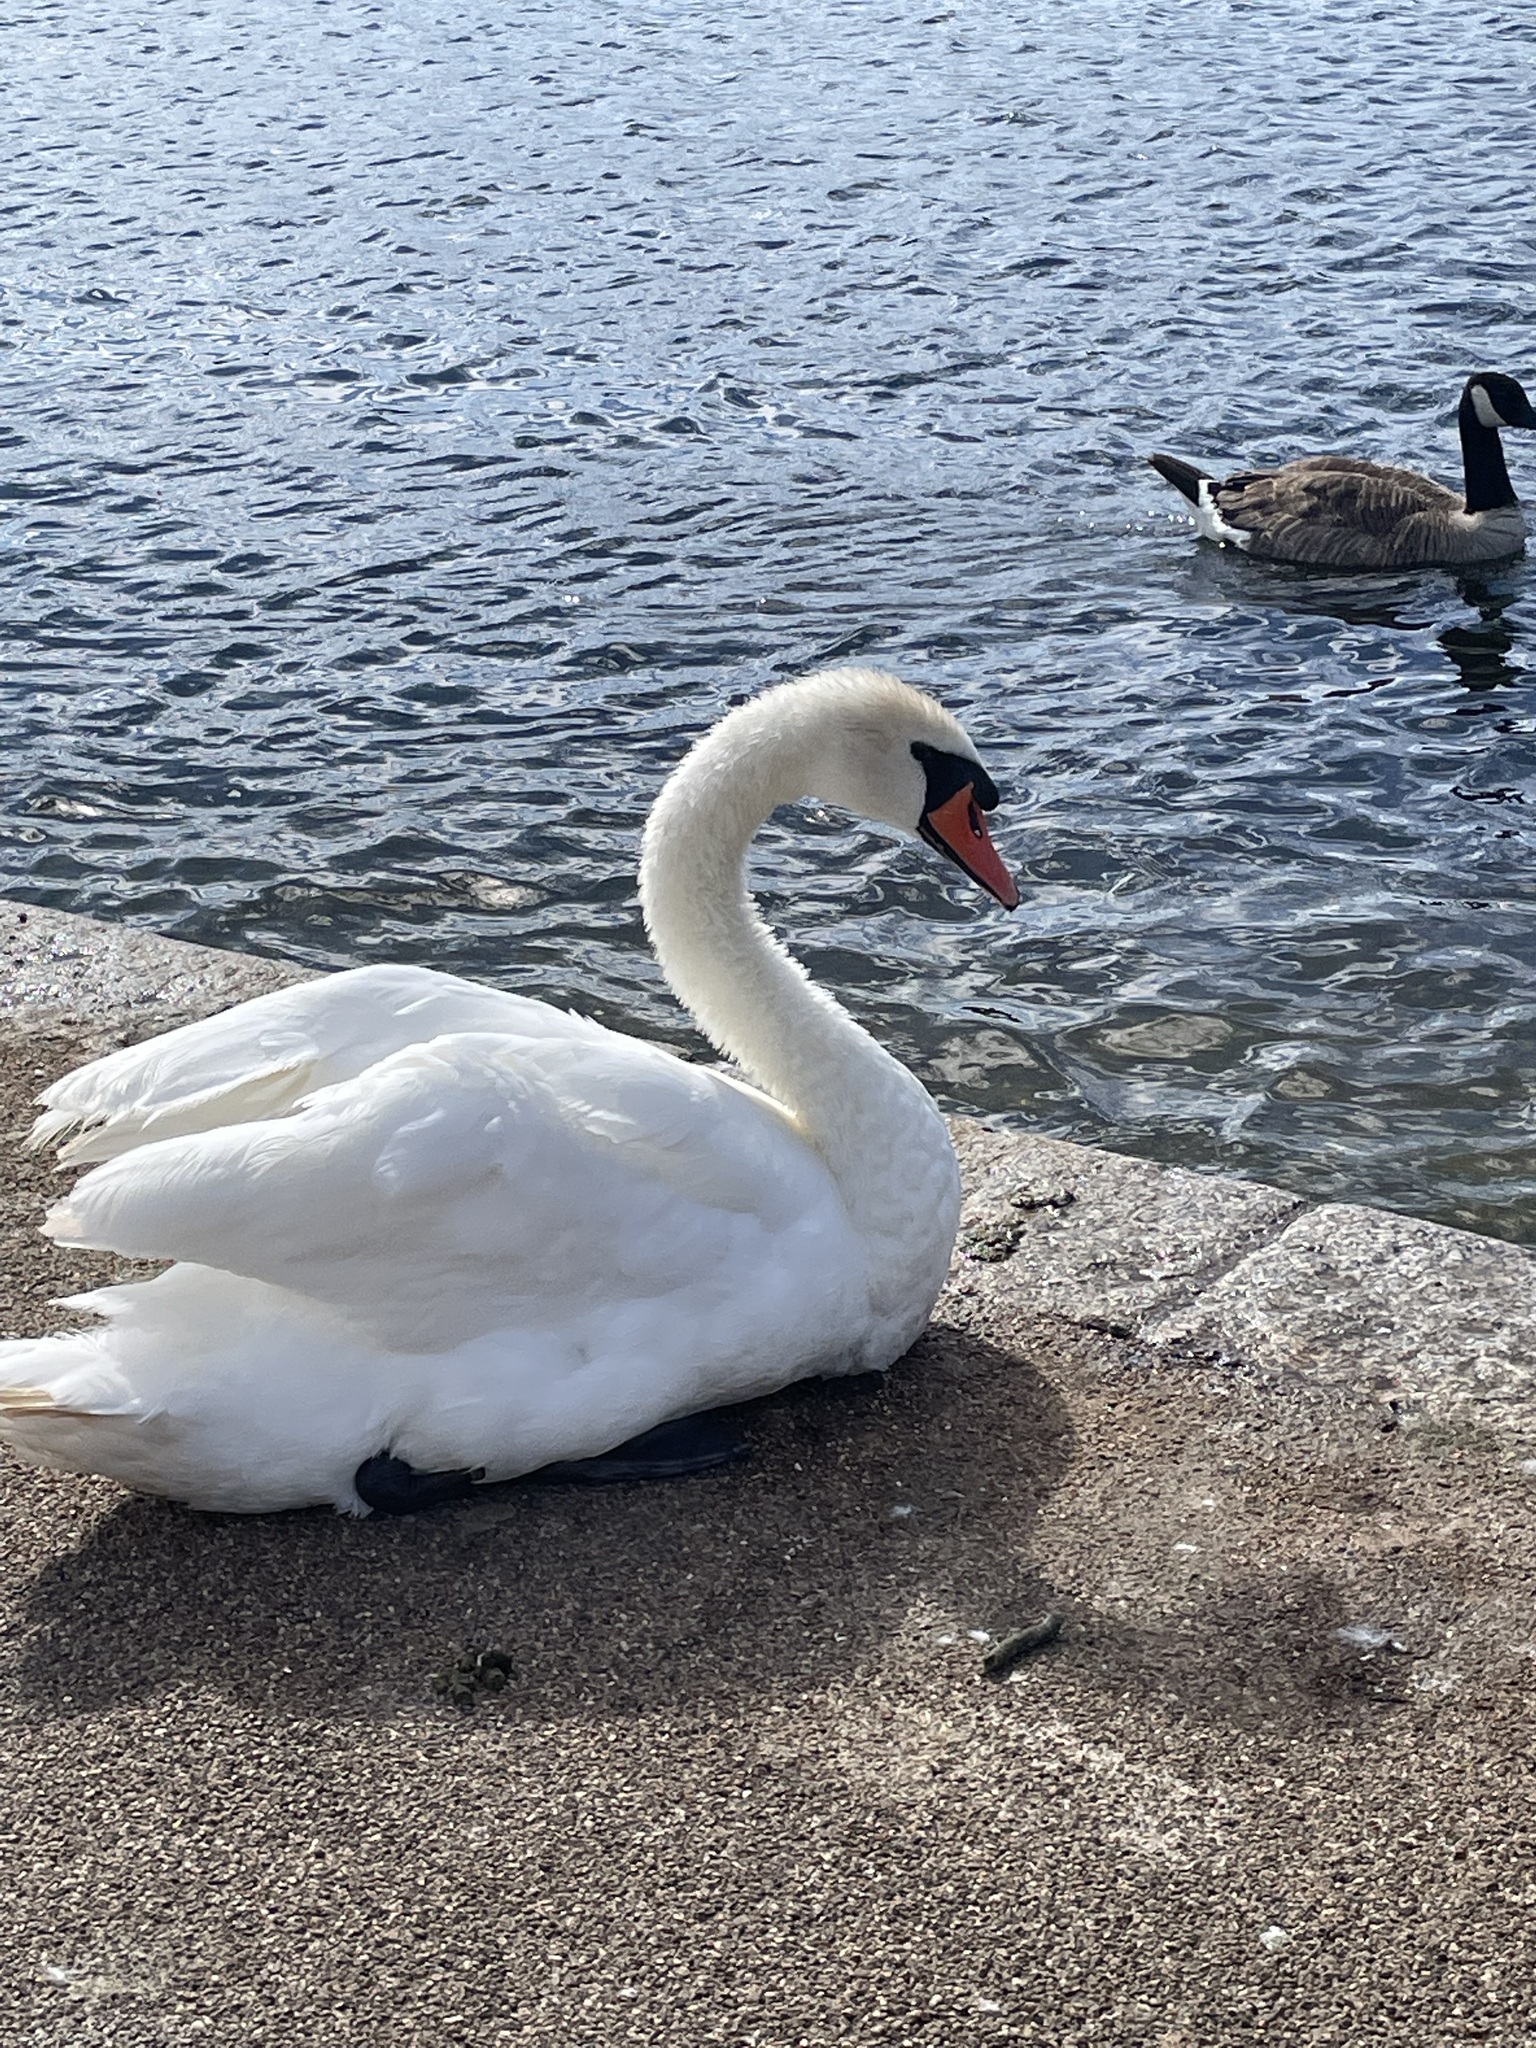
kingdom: Animalia
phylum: Chordata
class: Aves
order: Anseriformes
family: Anatidae
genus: Cygnus
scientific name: Cygnus olor
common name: Mute swan
